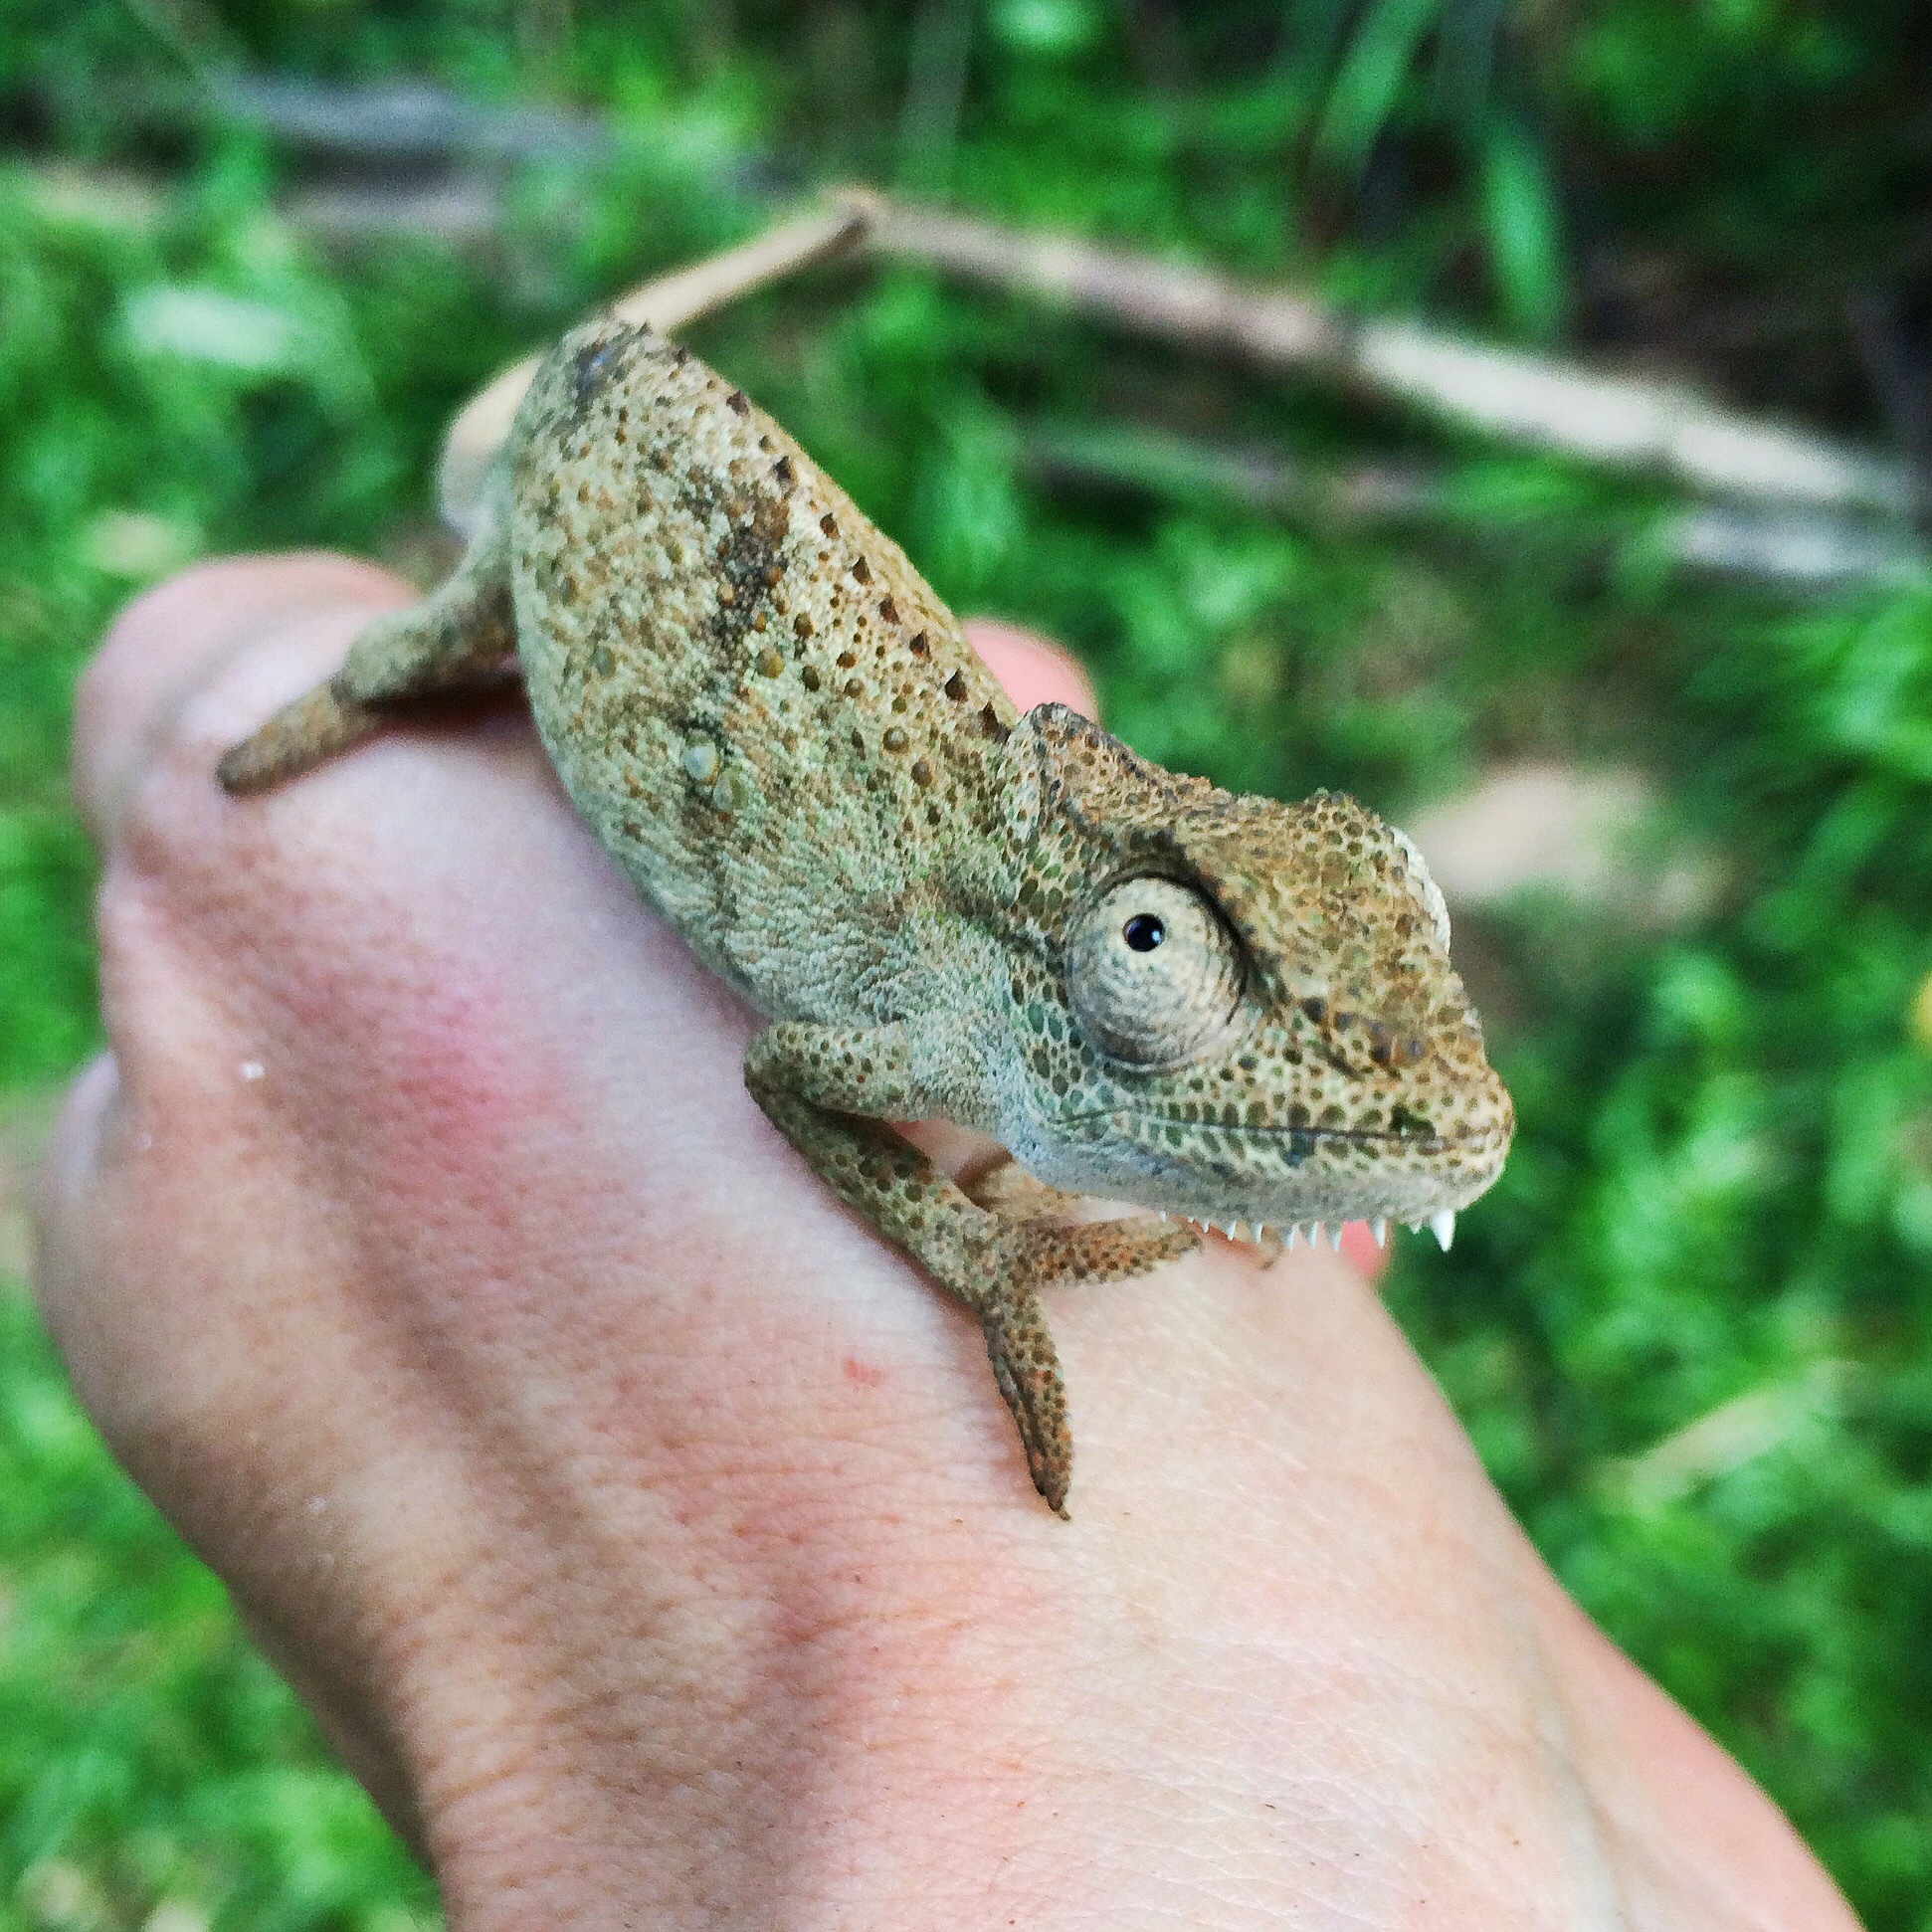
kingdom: Animalia
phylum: Chordata
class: Squamata
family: Chamaeleonidae
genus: Bradypodion
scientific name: Bradypodion melanocephalum
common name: Black-headed dwarf chameleon
